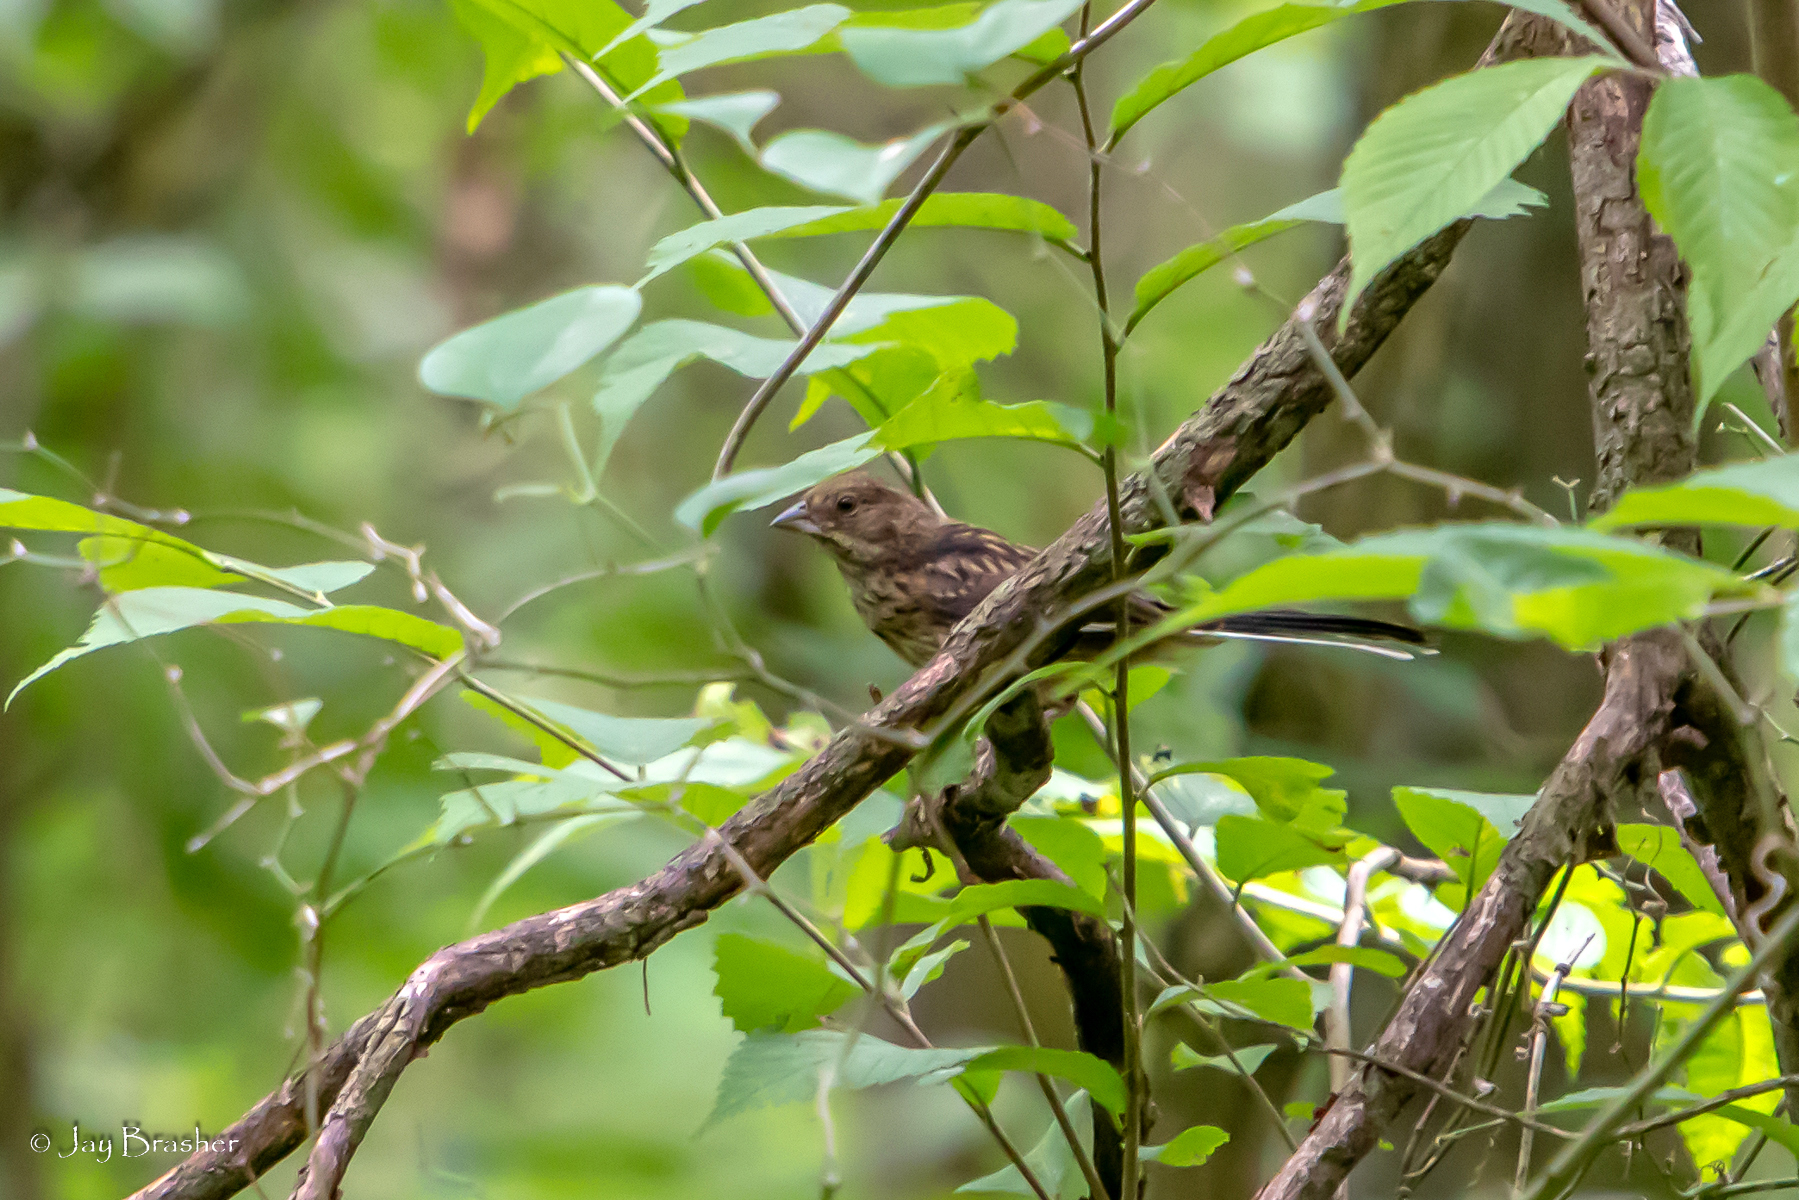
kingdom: Animalia
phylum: Chordata
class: Aves
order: Passeriformes
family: Passerellidae
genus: Pipilo
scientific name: Pipilo erythrophthalmus
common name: Eastern towhee
